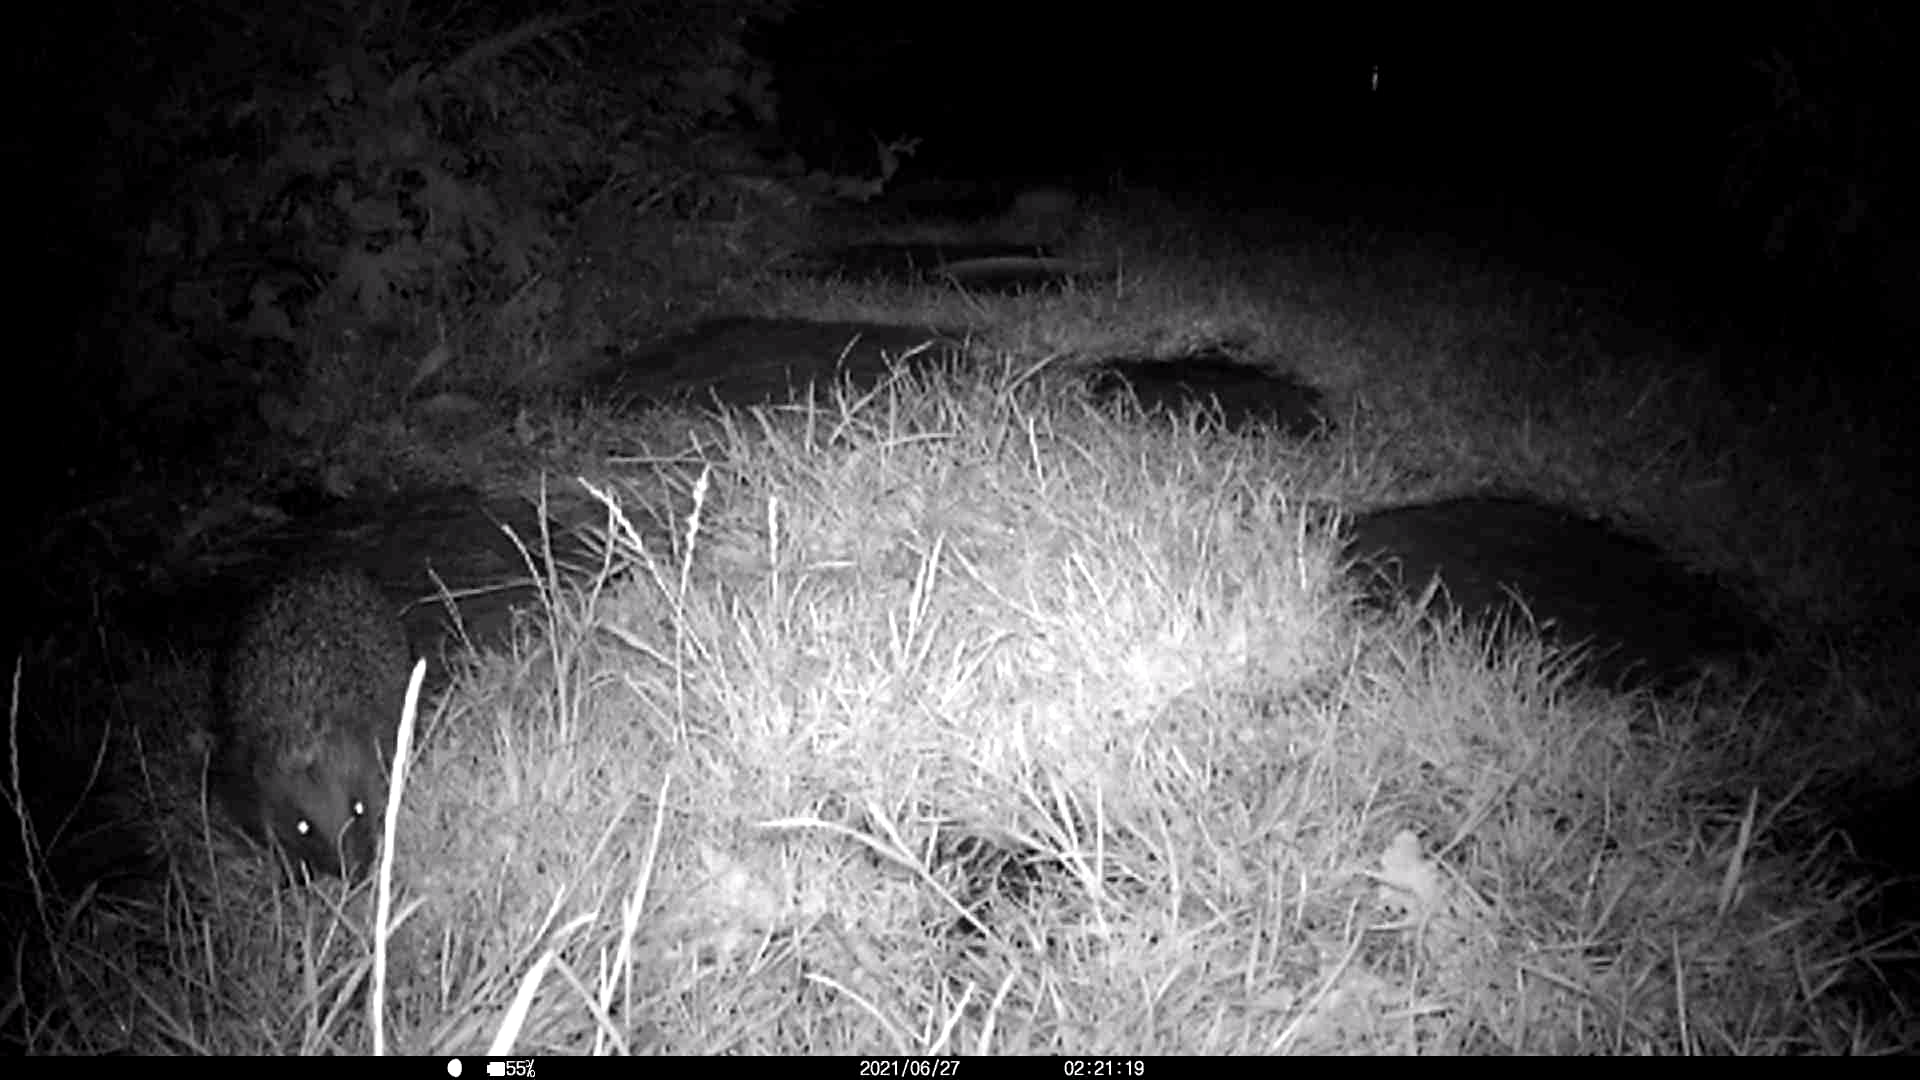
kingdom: Animalia
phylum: Chordata
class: Mammalia
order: Erinaceomorpha
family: Erinaceidae
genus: Erinaceus
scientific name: Erinaceus europaeus
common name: West european hedgehog
